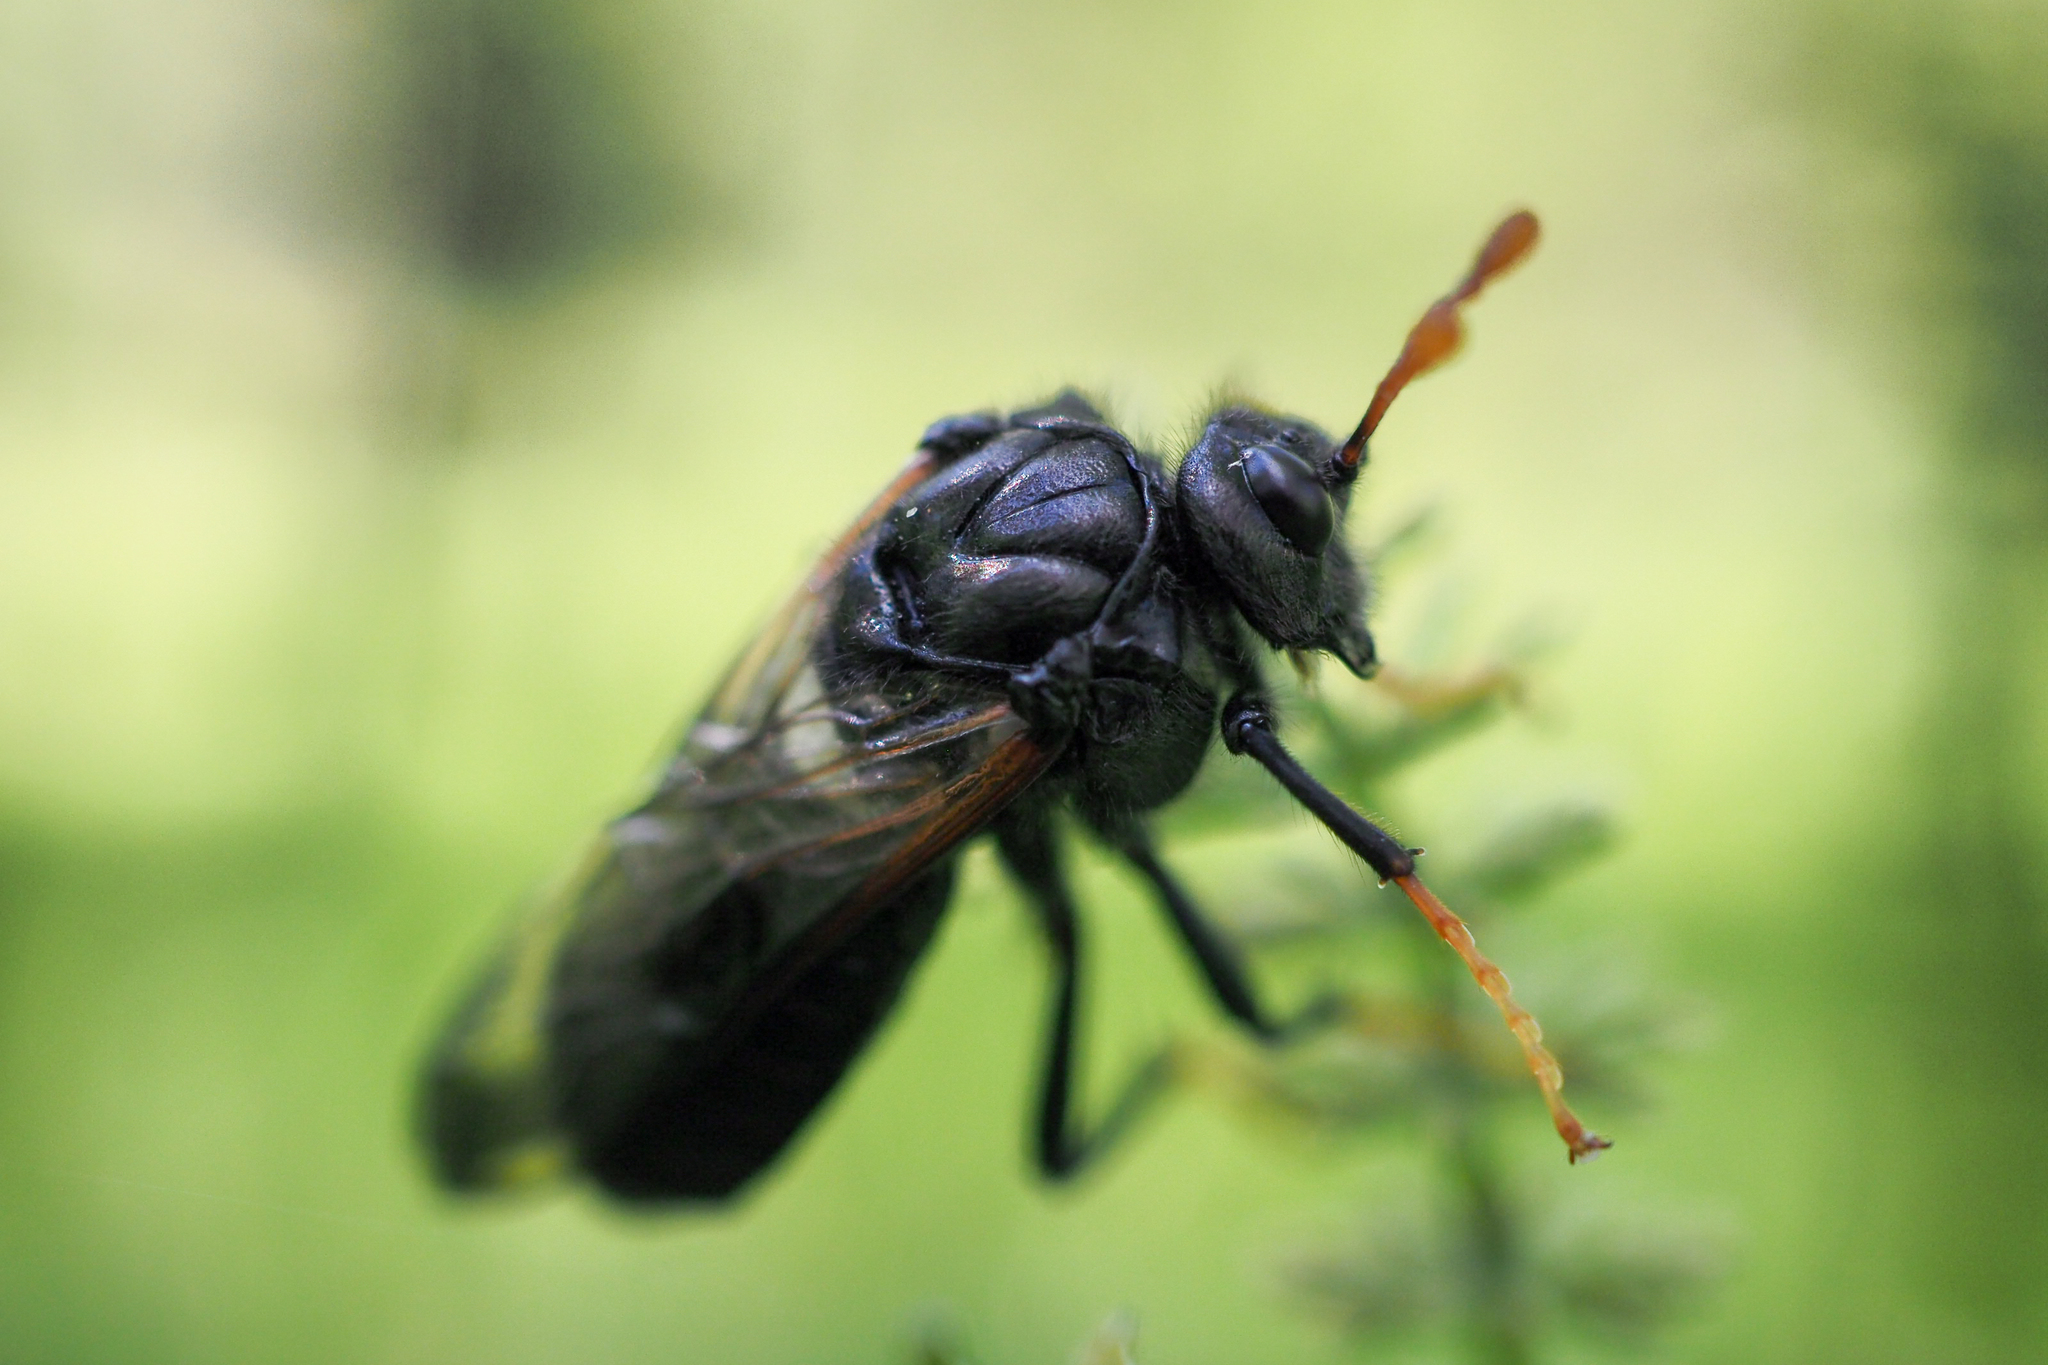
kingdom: Animalia
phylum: Arthropoda
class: Insecta
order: Hymenoptera
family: Cimbicidae
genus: Cimbex
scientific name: Cimbex femoratus
